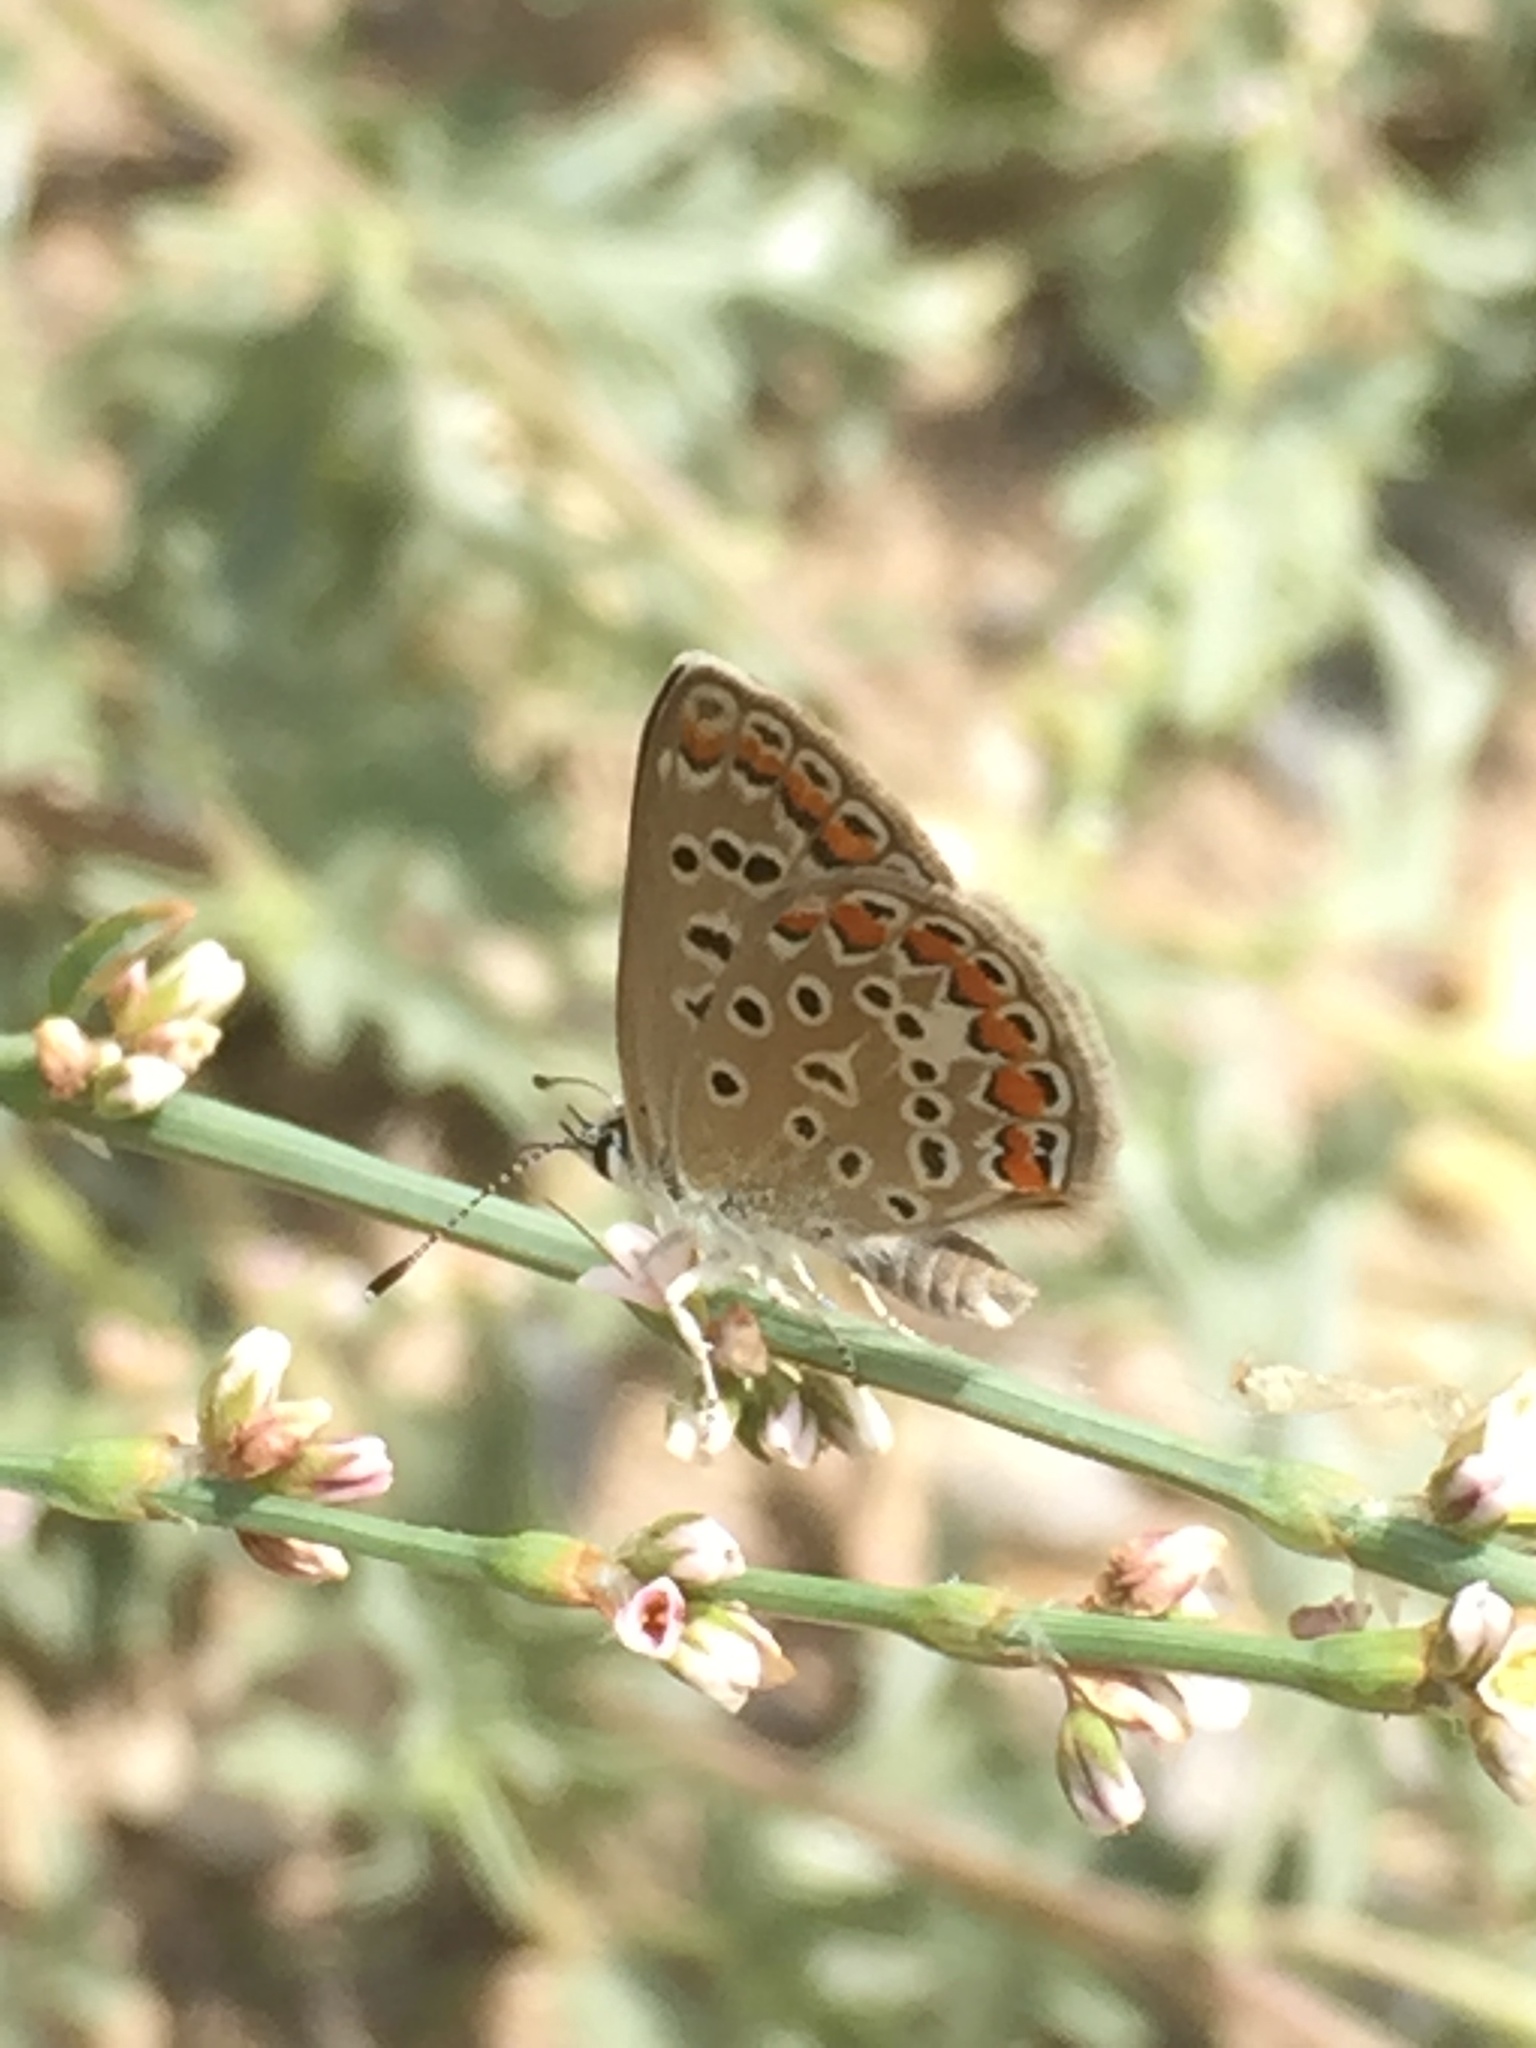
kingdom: Animalia
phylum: Arthropoda
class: Insecta
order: Lepidoptera
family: Lycaenidae
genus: Polyommatus
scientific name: Polyommatus icarus
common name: Common blue
